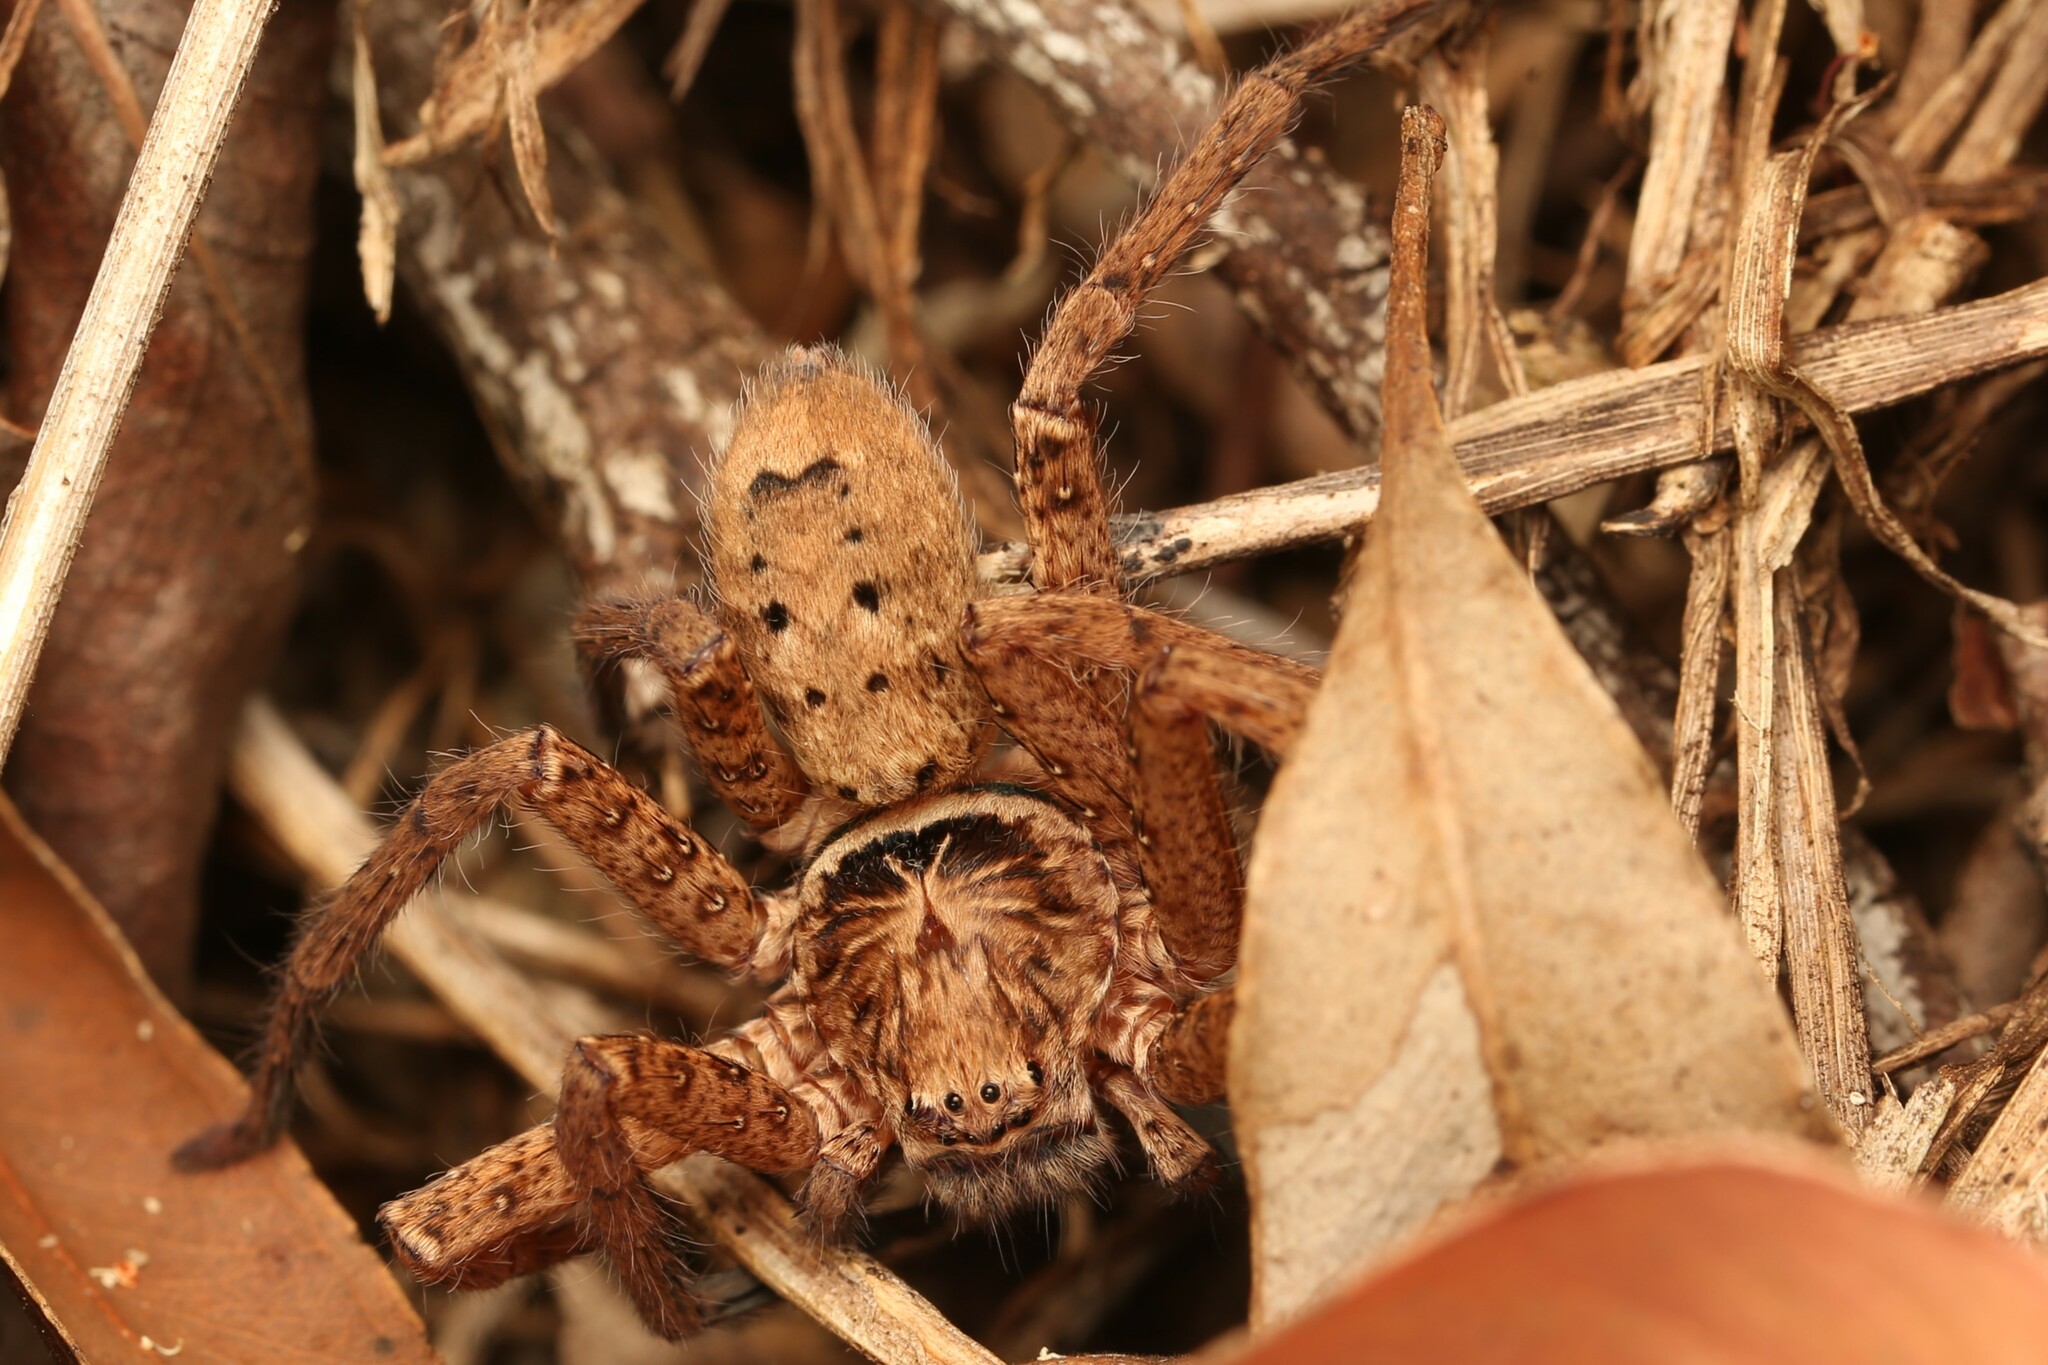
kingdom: Animalia
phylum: Arthropoda
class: Arachnida
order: Araneae
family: Sparassidae
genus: Heteropoda
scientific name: Heteropoda jugulans
